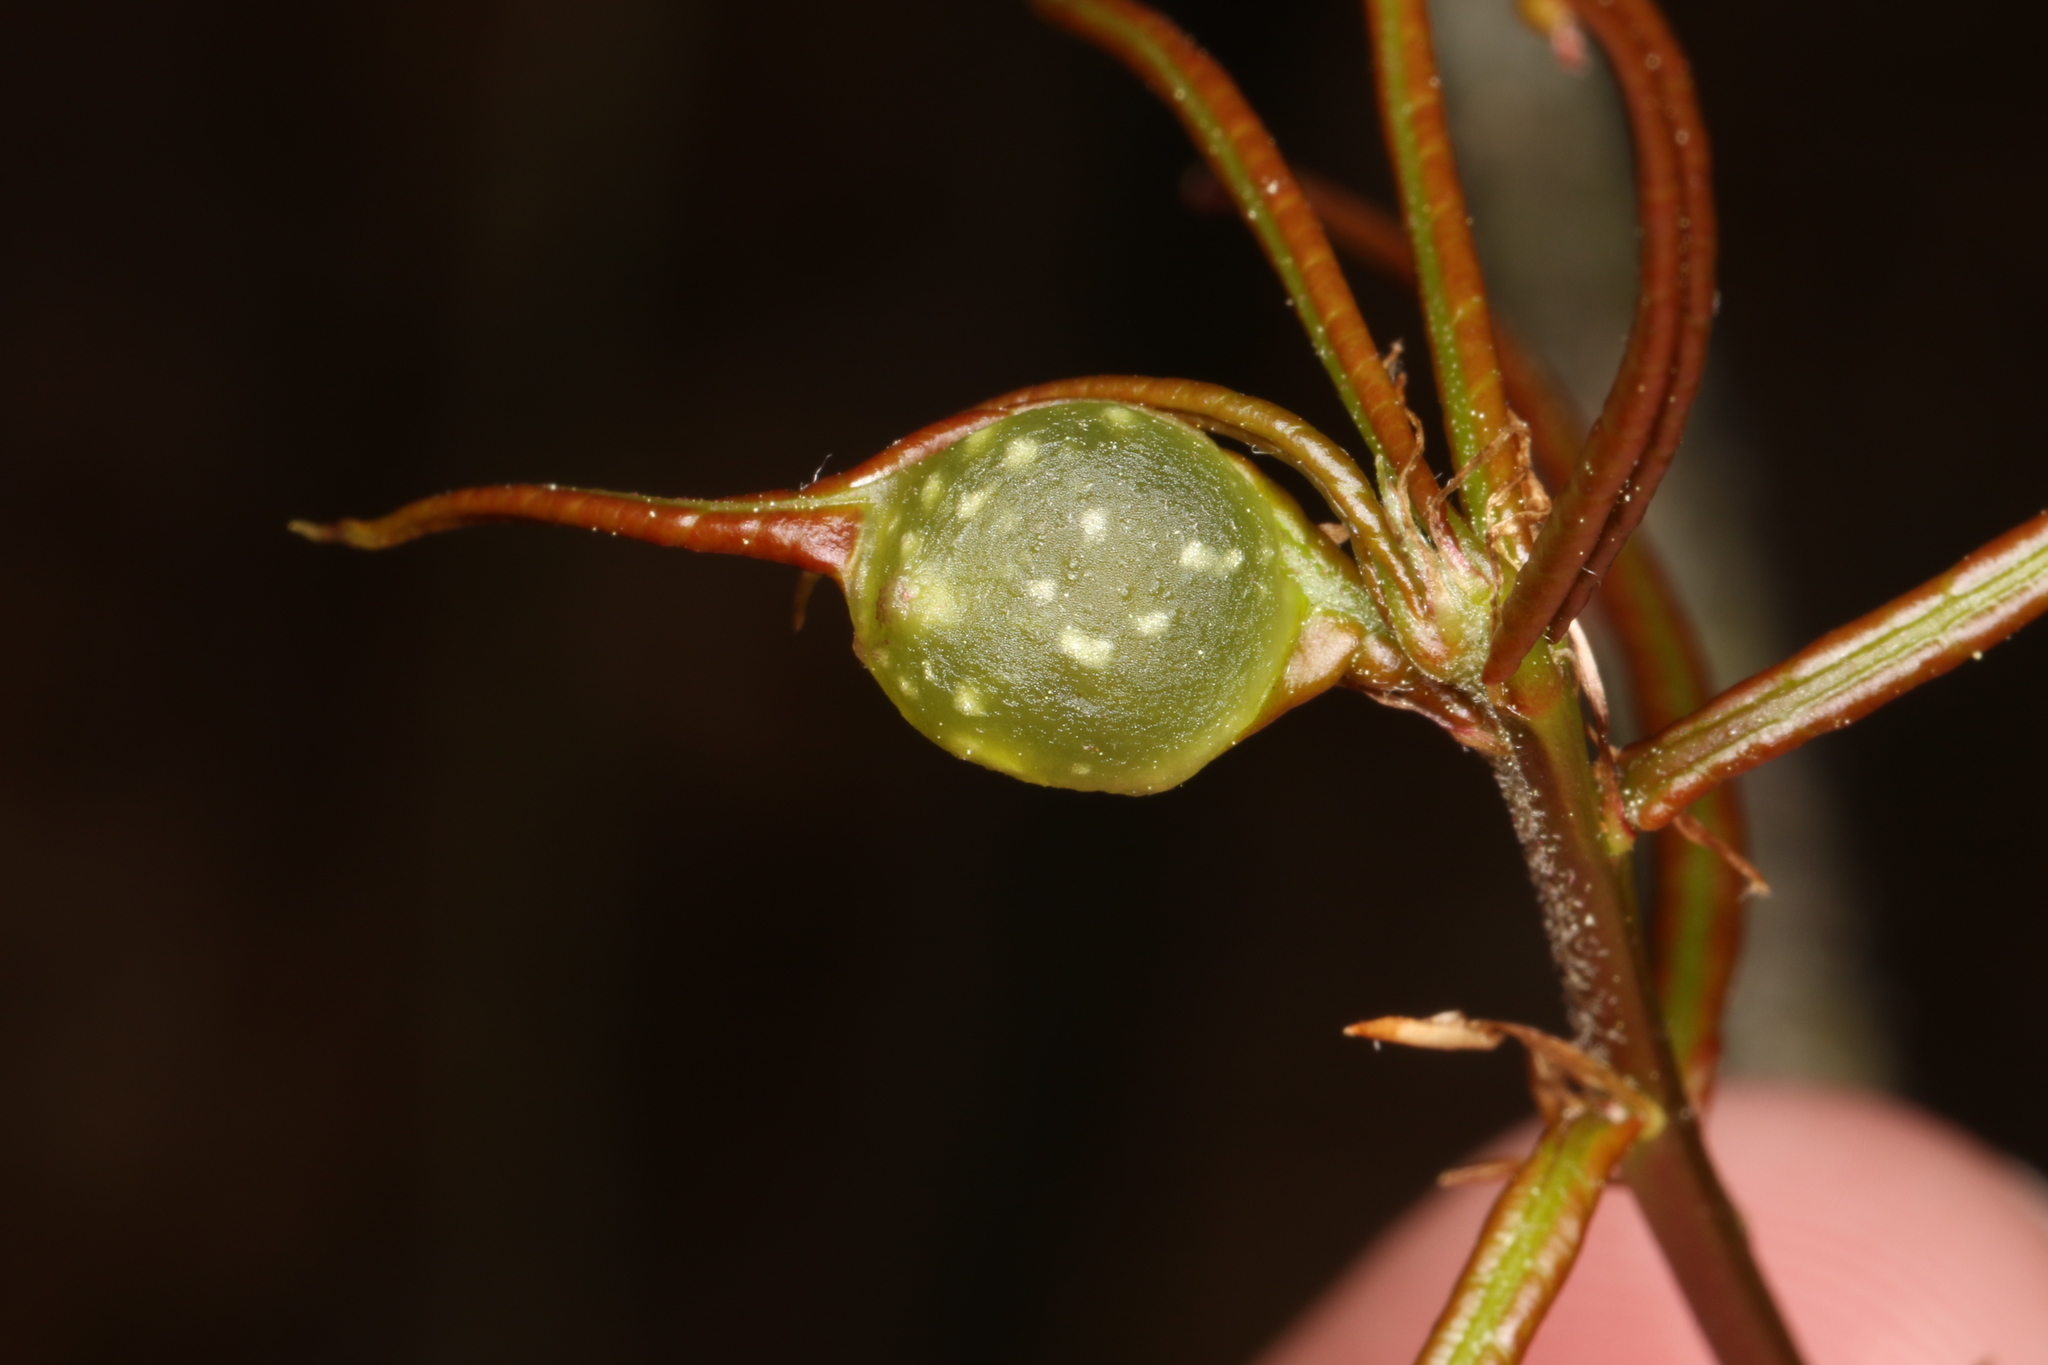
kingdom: Animalia
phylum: Arthropoda
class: Insecta
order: Hymenoptera
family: Cynipidae
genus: Dryocosmus
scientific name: Dryocosmus quercuspalustris
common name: Succulent oak gall wasp
